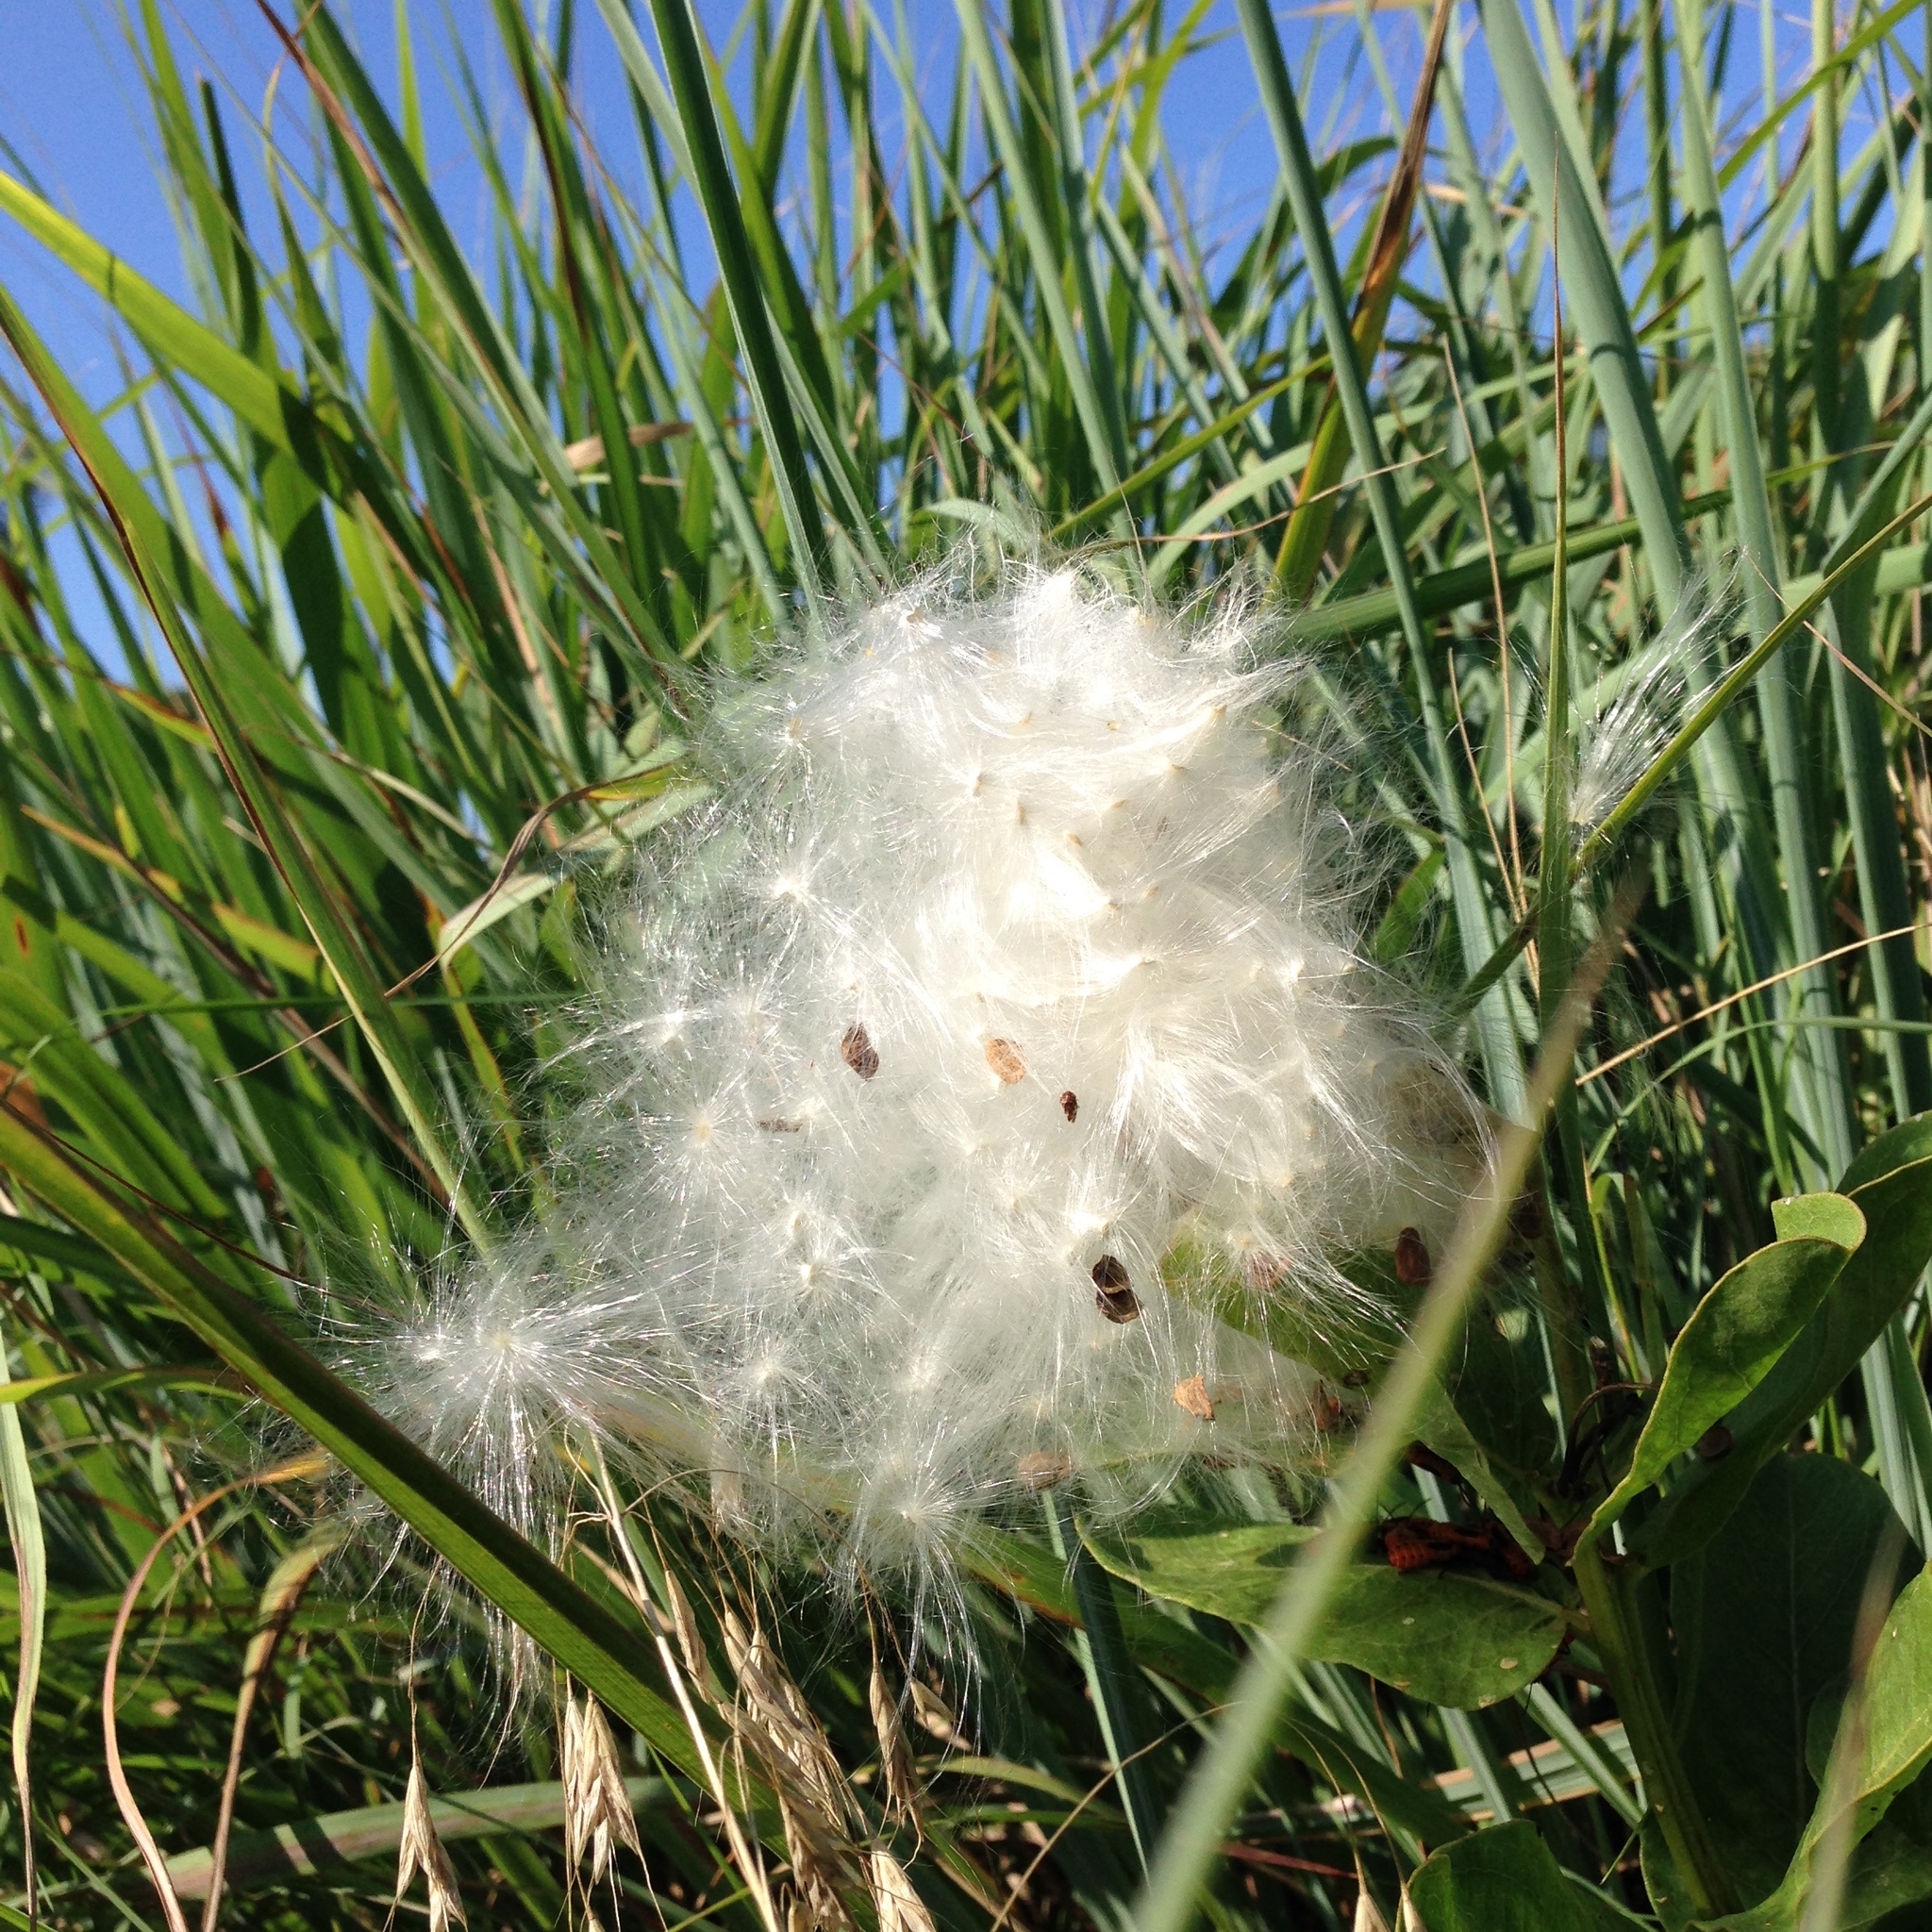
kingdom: Plantae
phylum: Tracheophyta
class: Magnoliopsida
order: Gentianales
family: Apocynaceae
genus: Asclepias
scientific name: Asclepias viridis
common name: Antelope-horns
